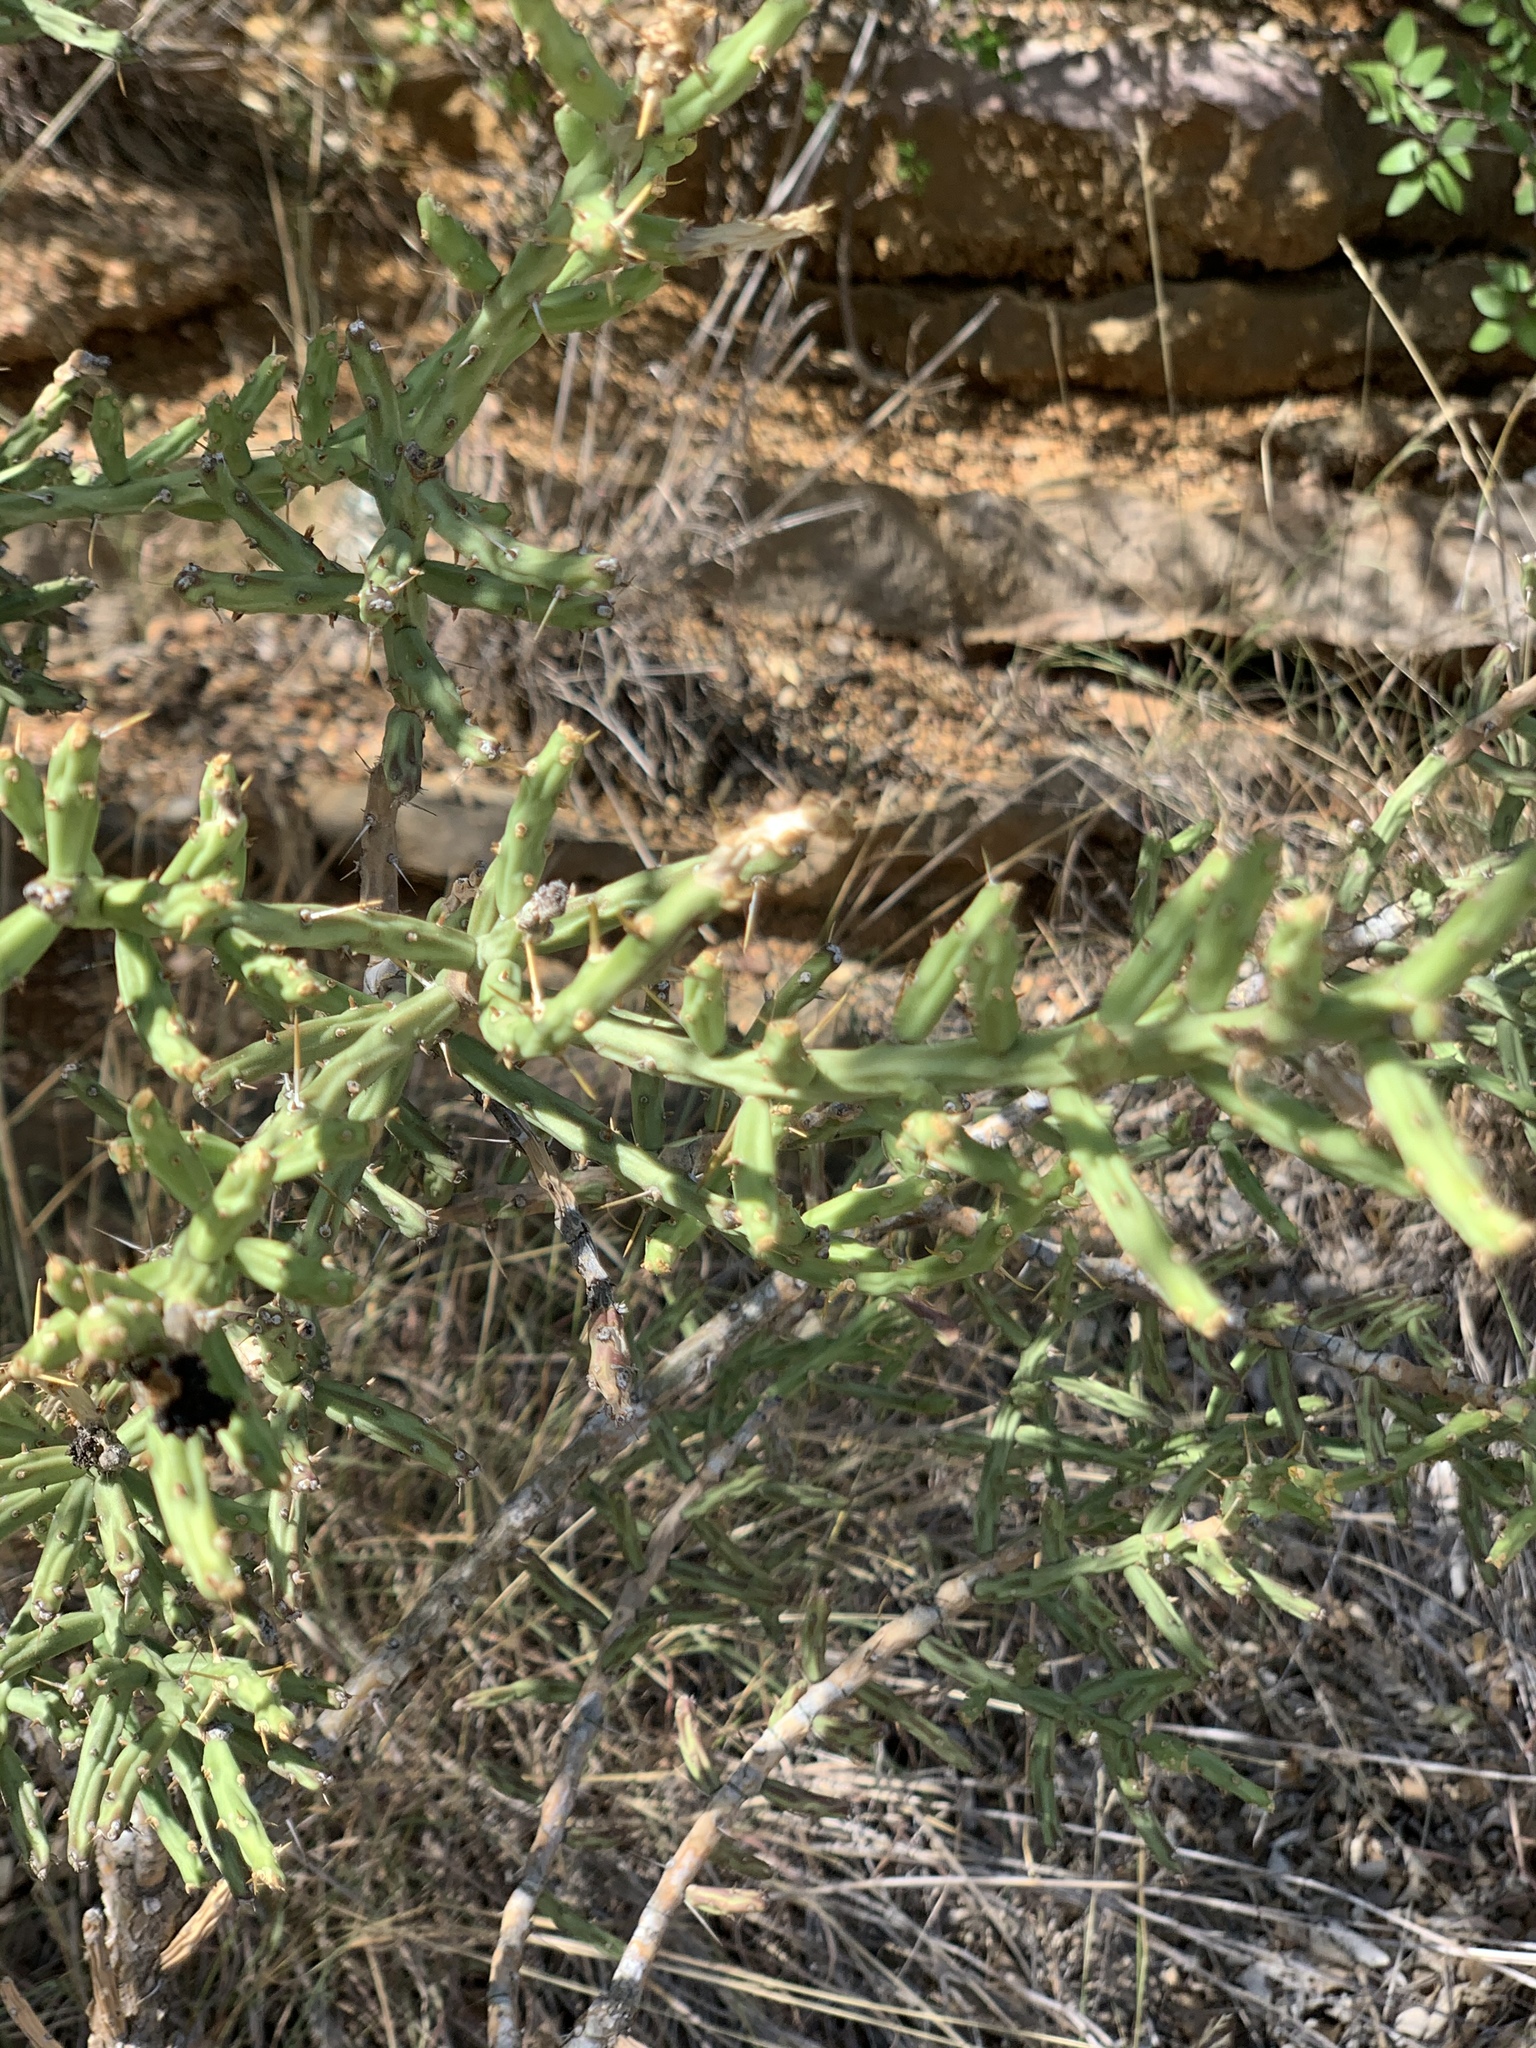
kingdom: Plantae
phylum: Tracheophyta
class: Magnoliopsida
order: Caryophyllales
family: Cactaceae
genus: Cylindropuntia
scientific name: Cylindropuntia leptocaulis
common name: Christmas cactus
